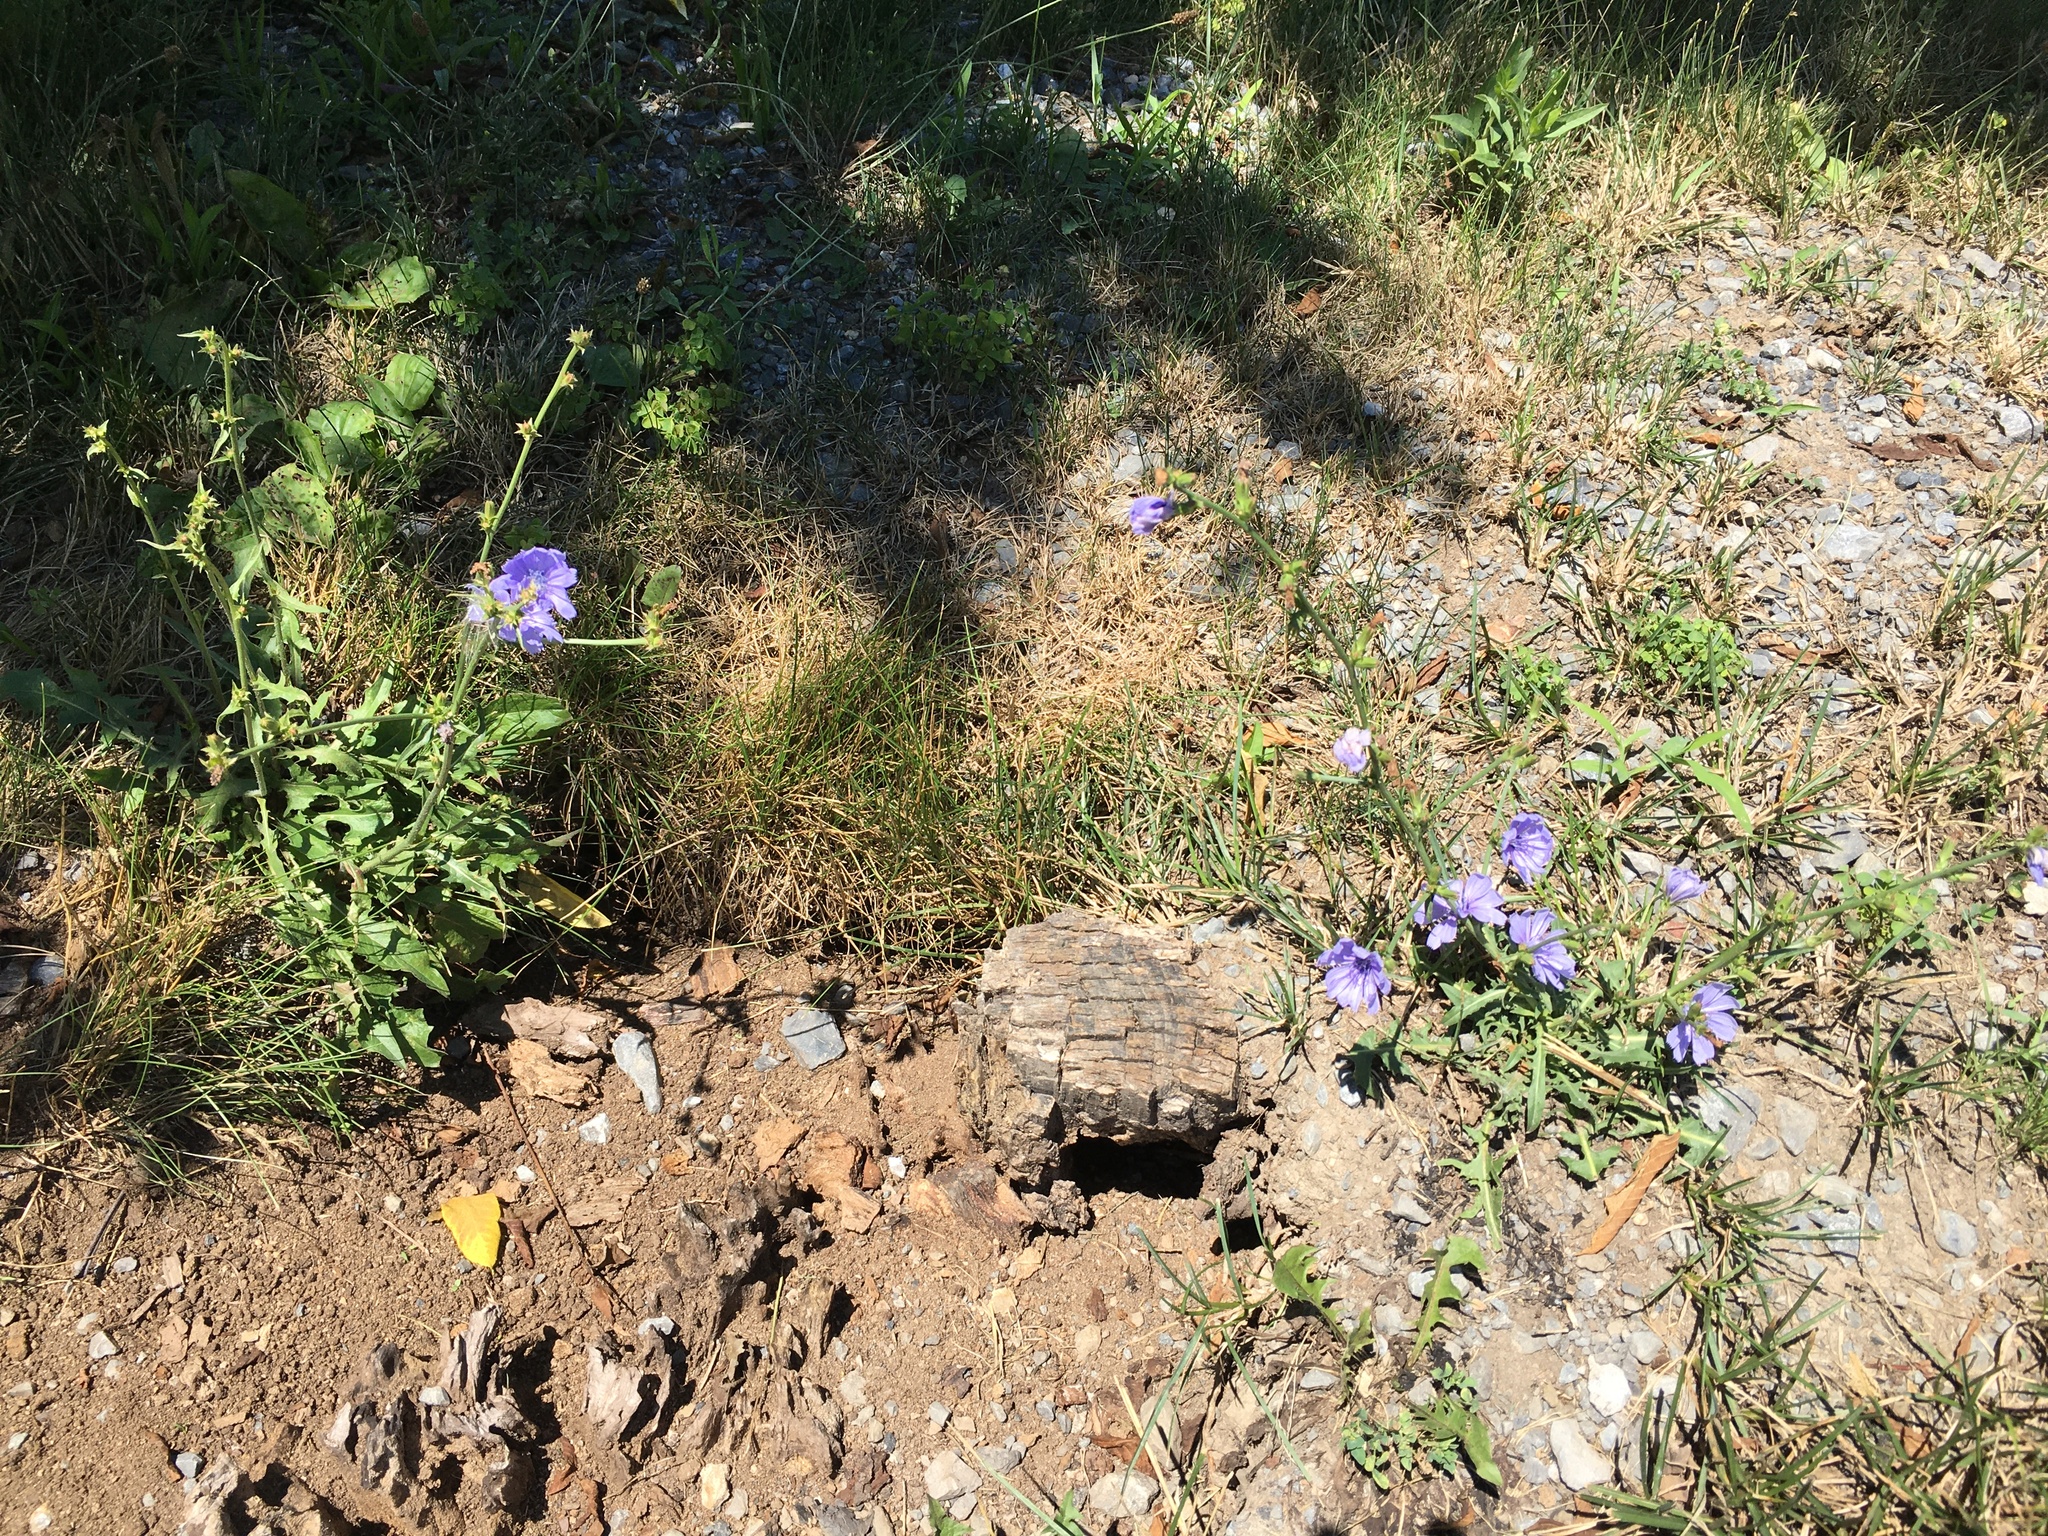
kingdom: Plantae
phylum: Tracheophyta
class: Magnoliopsida
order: Asterales
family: Asteraceae
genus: Cichorium
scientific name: Cichorium intybus
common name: Chicory
